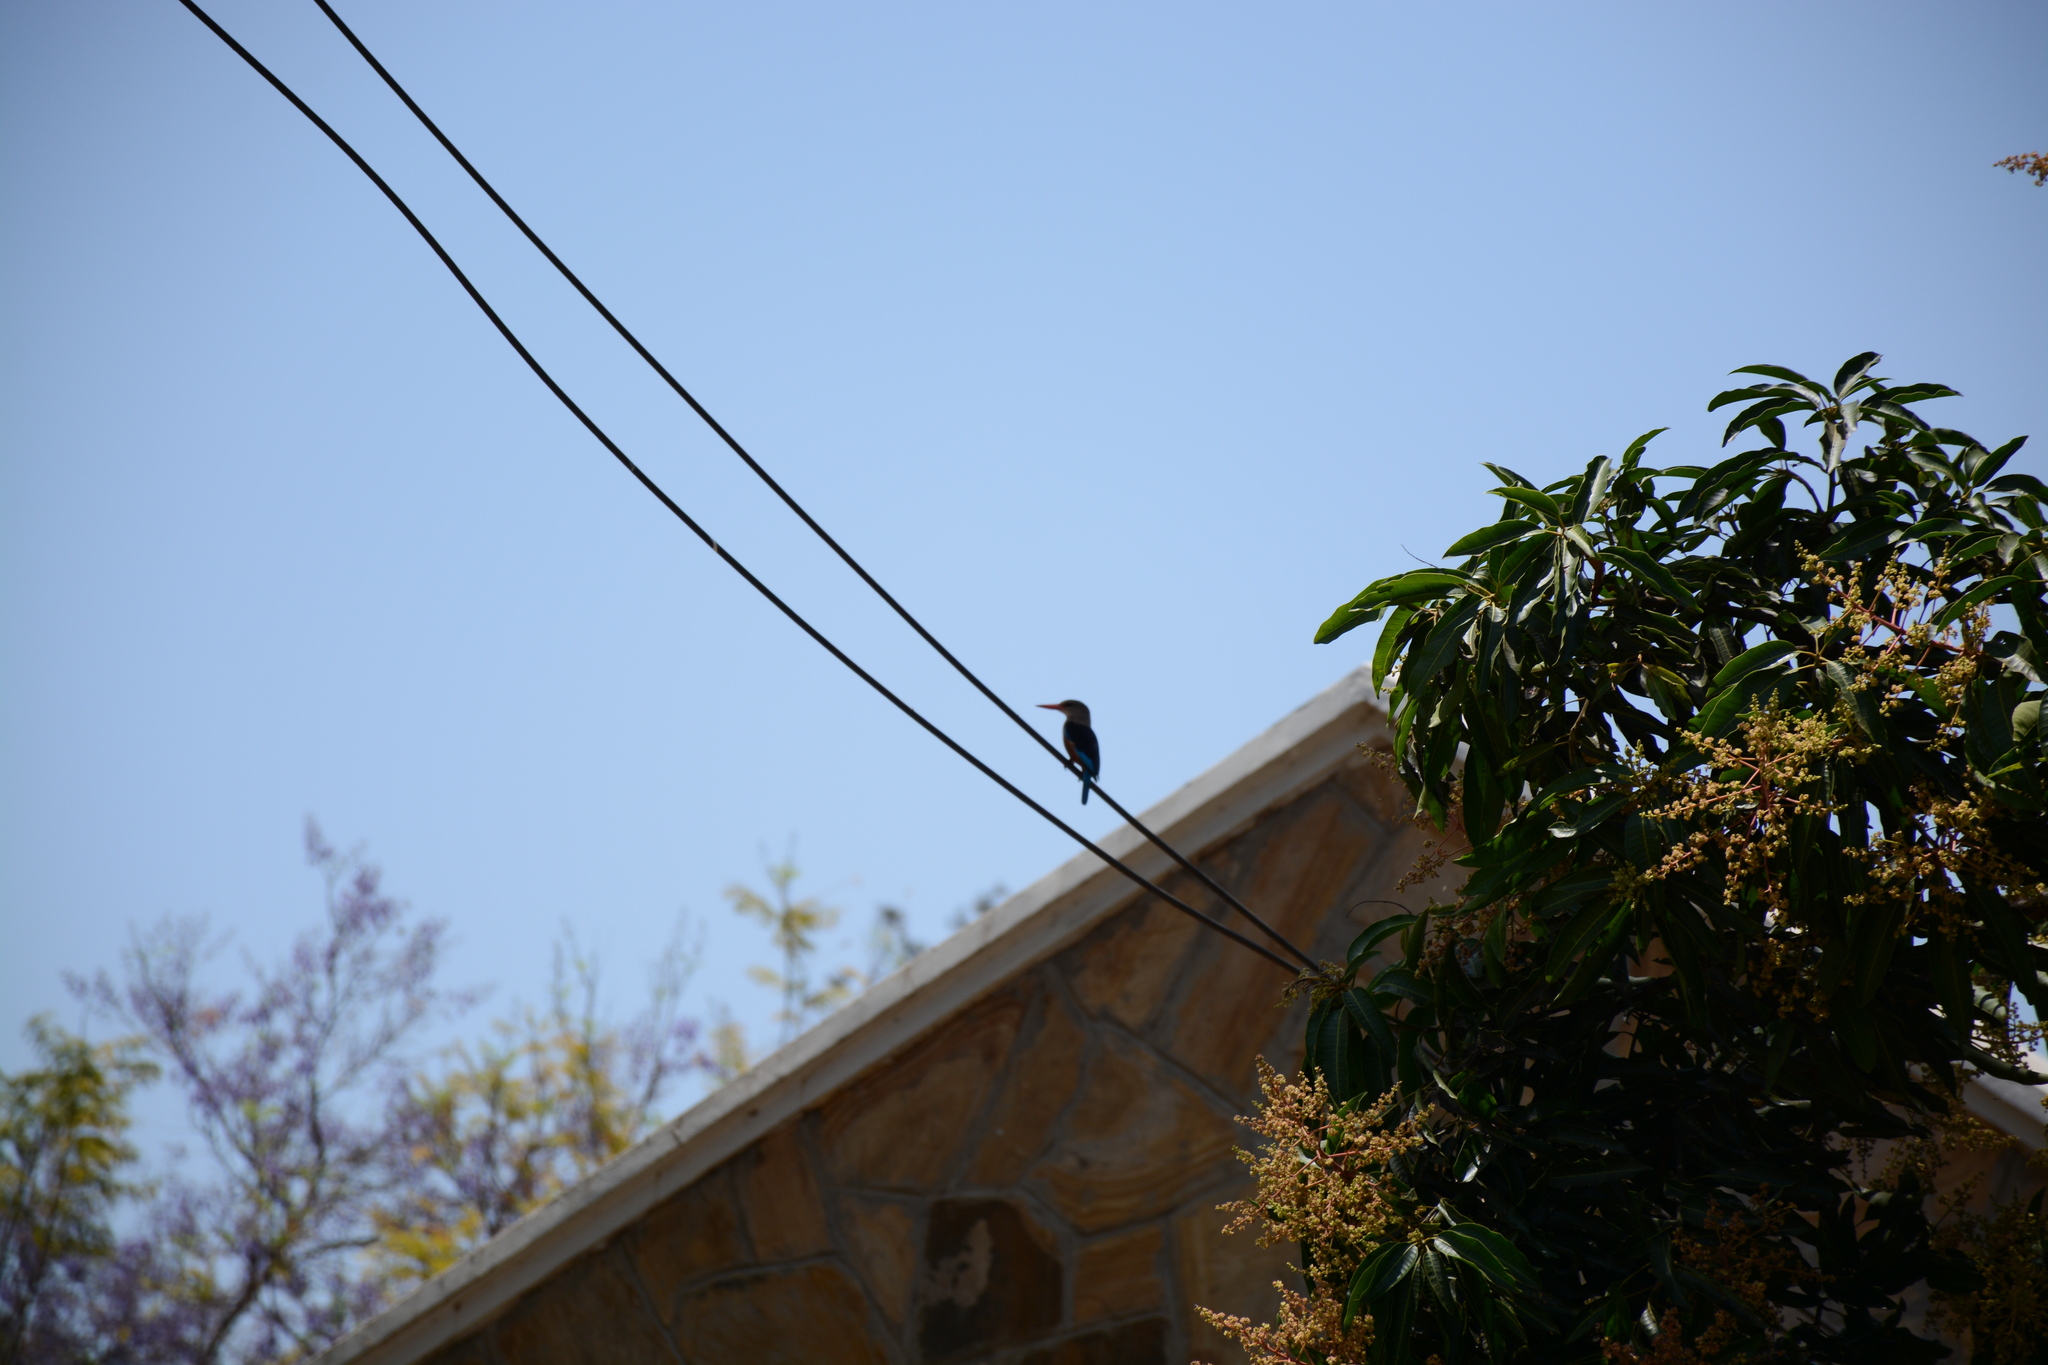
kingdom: Animalia
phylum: Chordata
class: Aves
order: Coraciiformes
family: Alcedinidae
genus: Halcyon
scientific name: Halcyon leucocephala
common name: Grey-headed kingfisher
